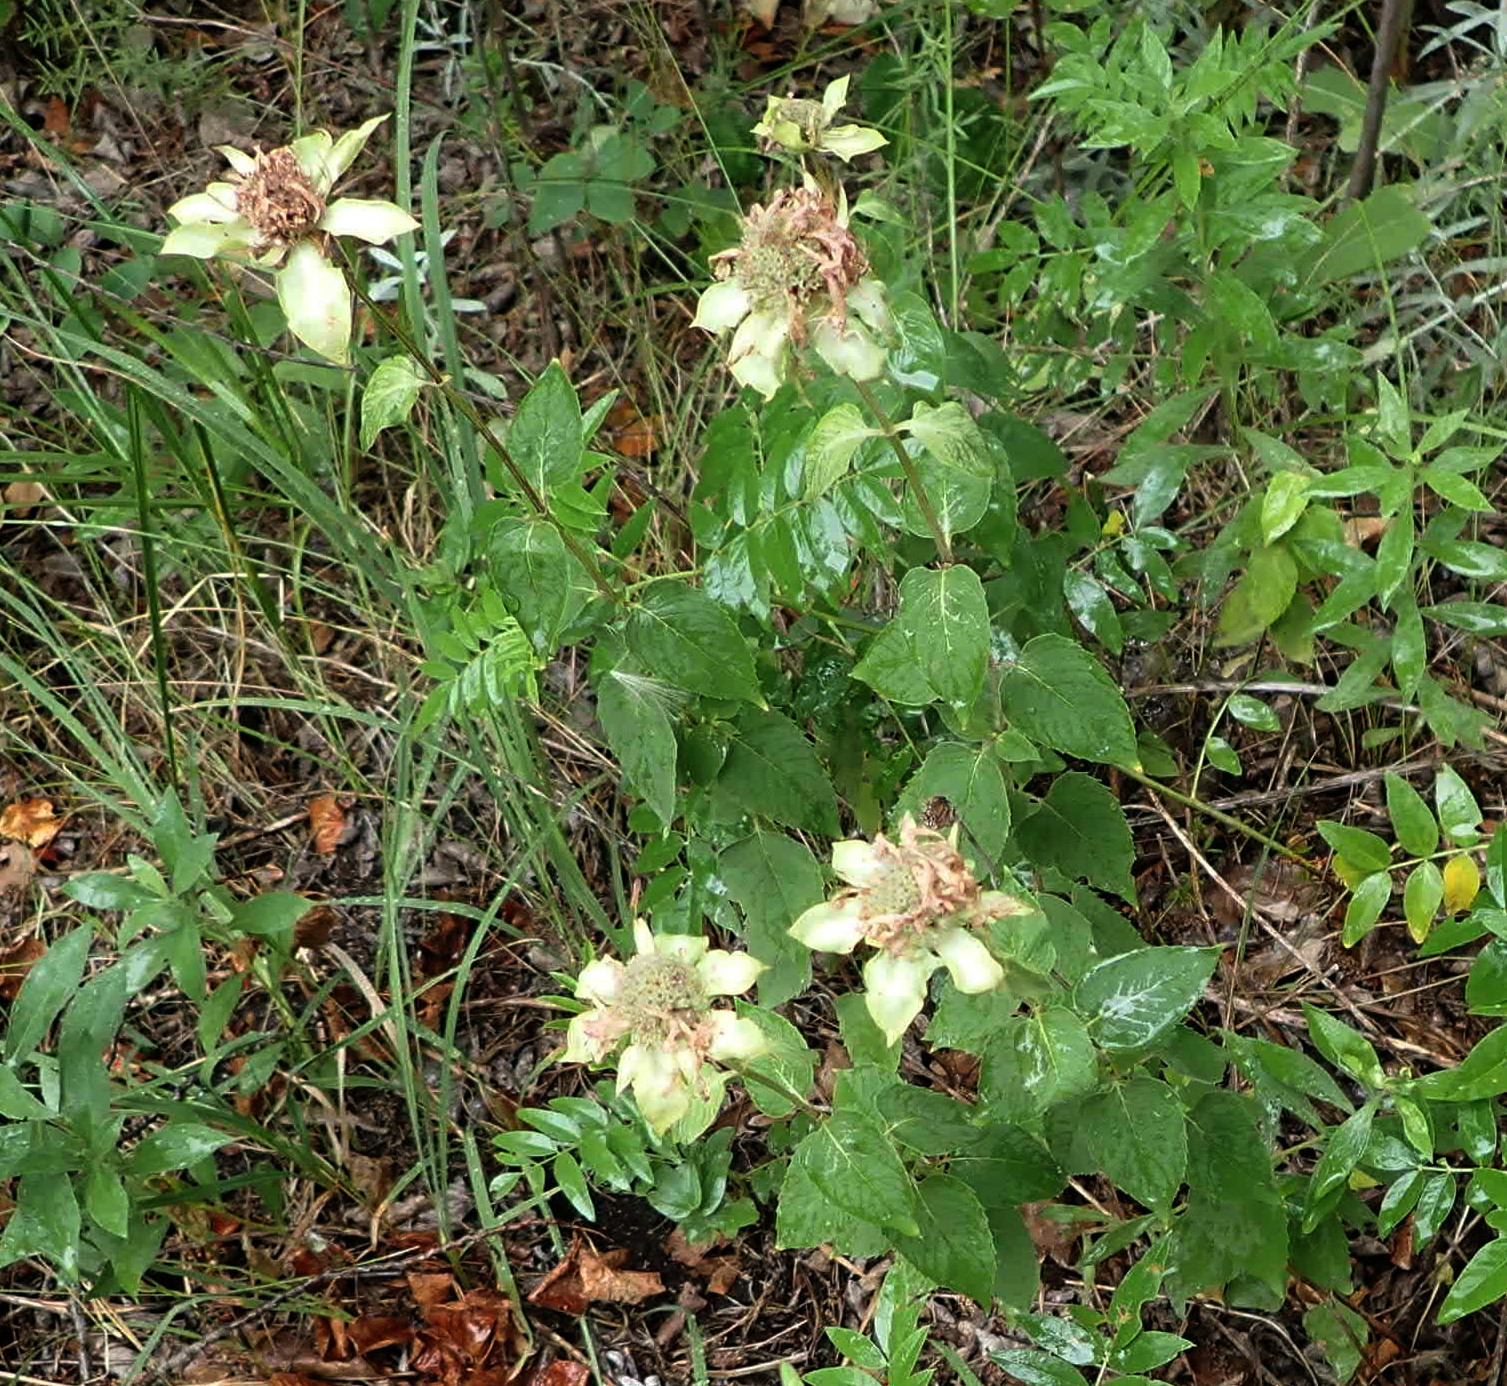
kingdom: Plantae
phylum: Tracheophyta
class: Magnoliopsida
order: Lamiales
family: Lamiaceae
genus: Monarda
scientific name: Monarda fistulosa
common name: Purple beebalm
